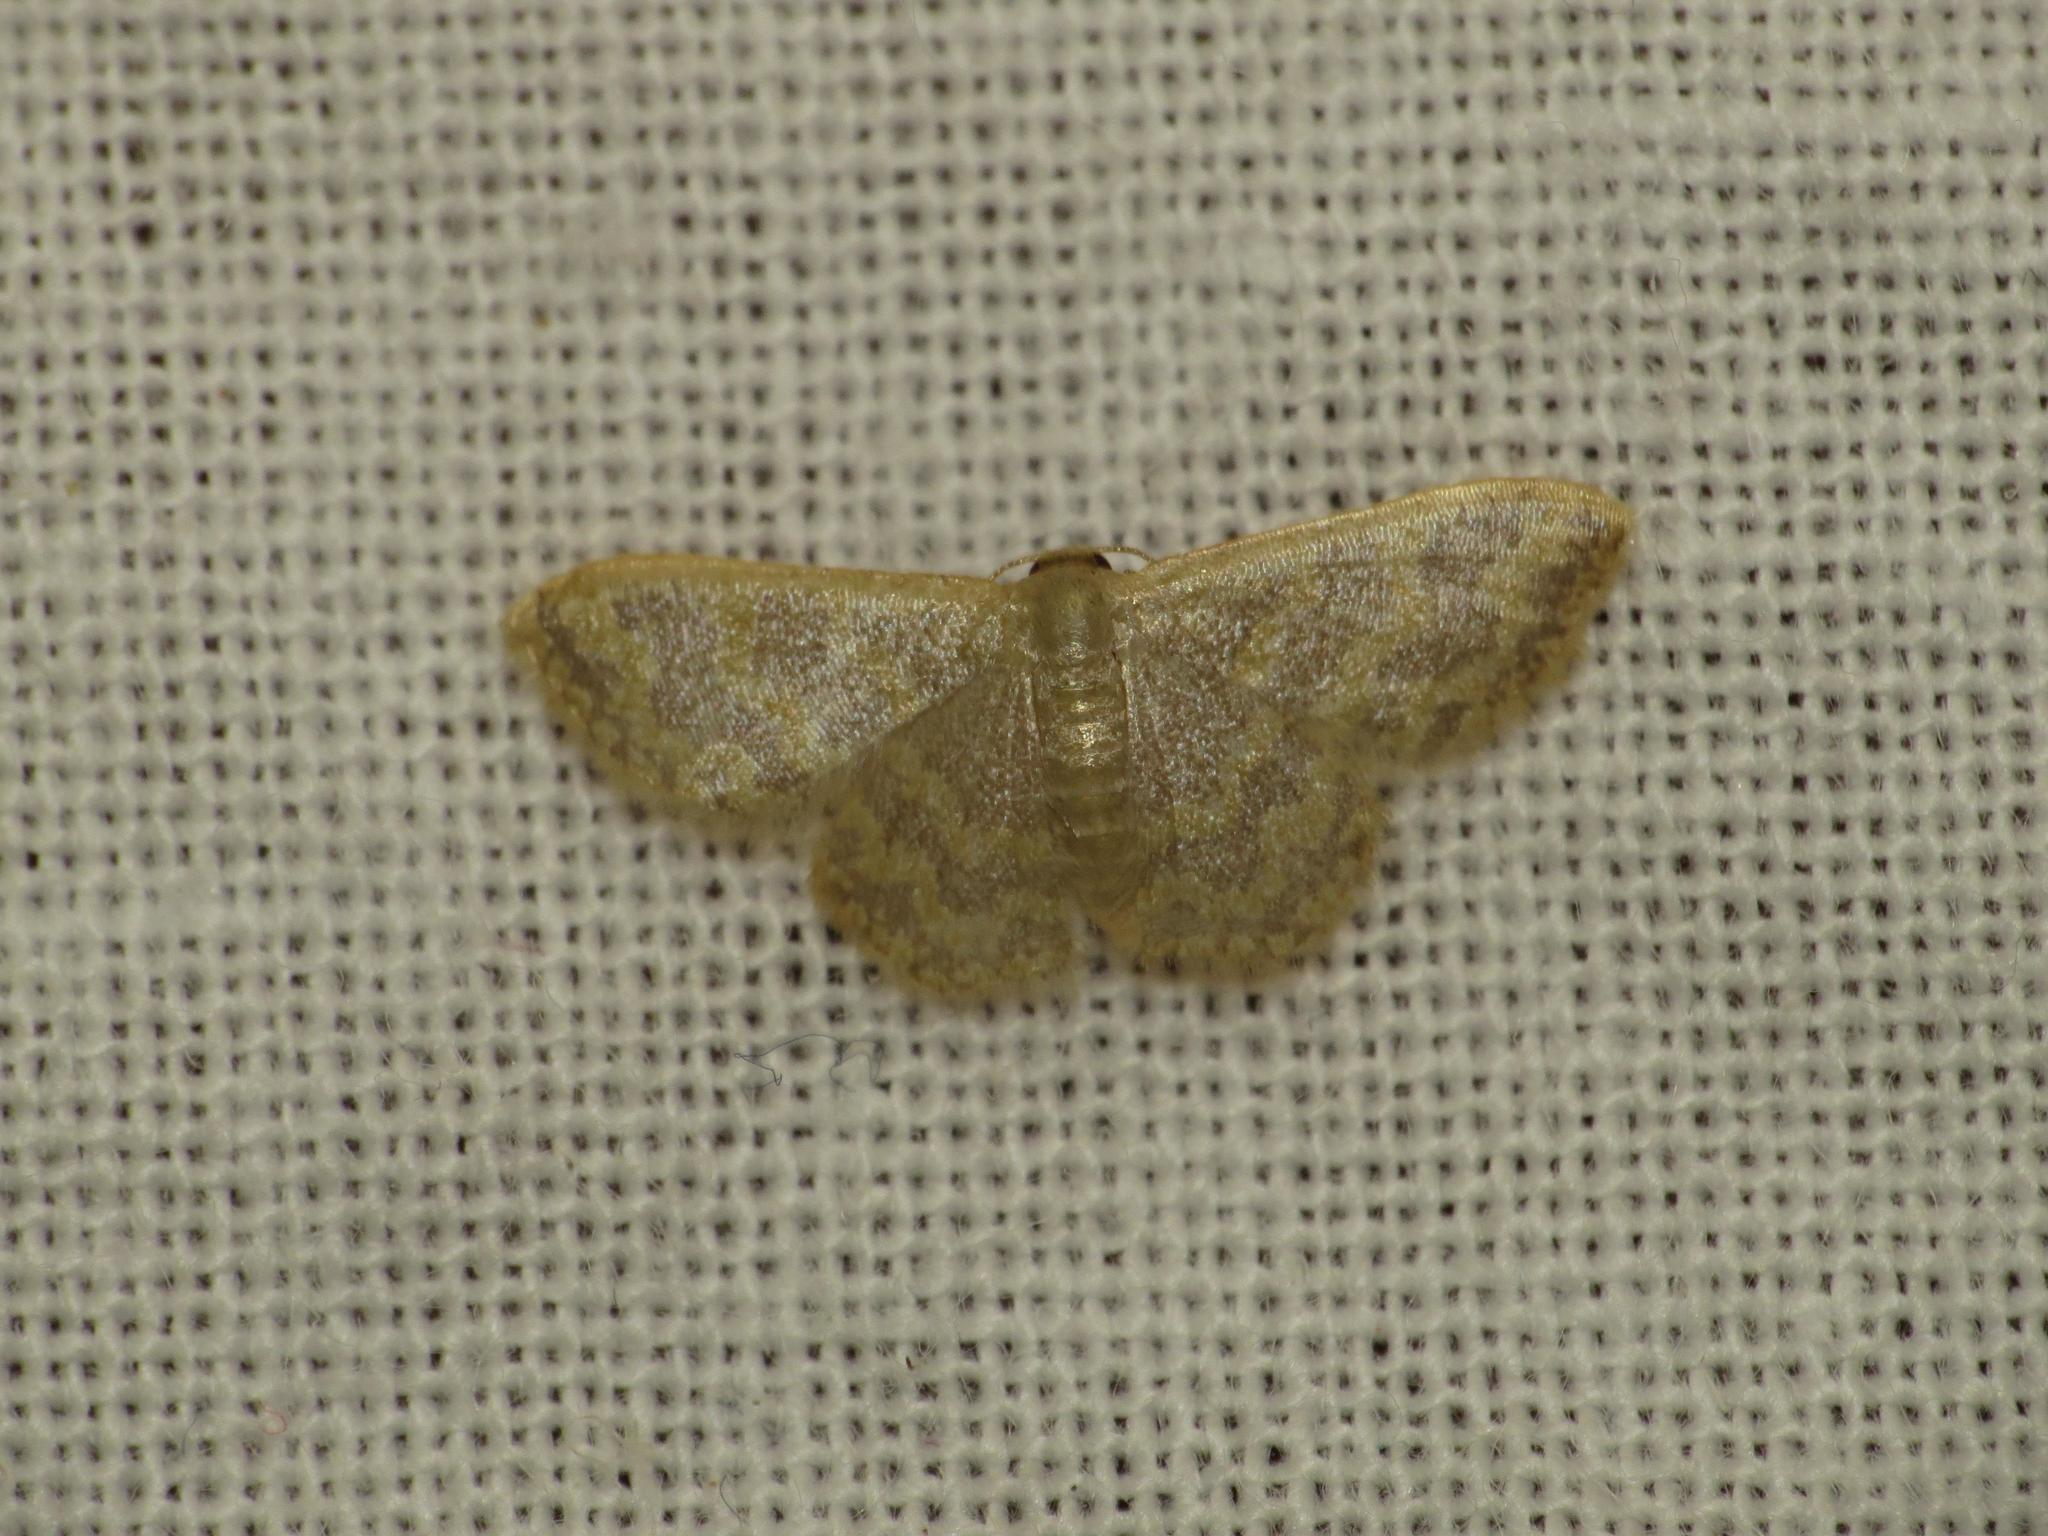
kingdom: Animalia
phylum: Arthropoda
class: Insecta
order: Lepidoptera
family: Geometridae
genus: Idaea
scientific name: Idaea simplex
